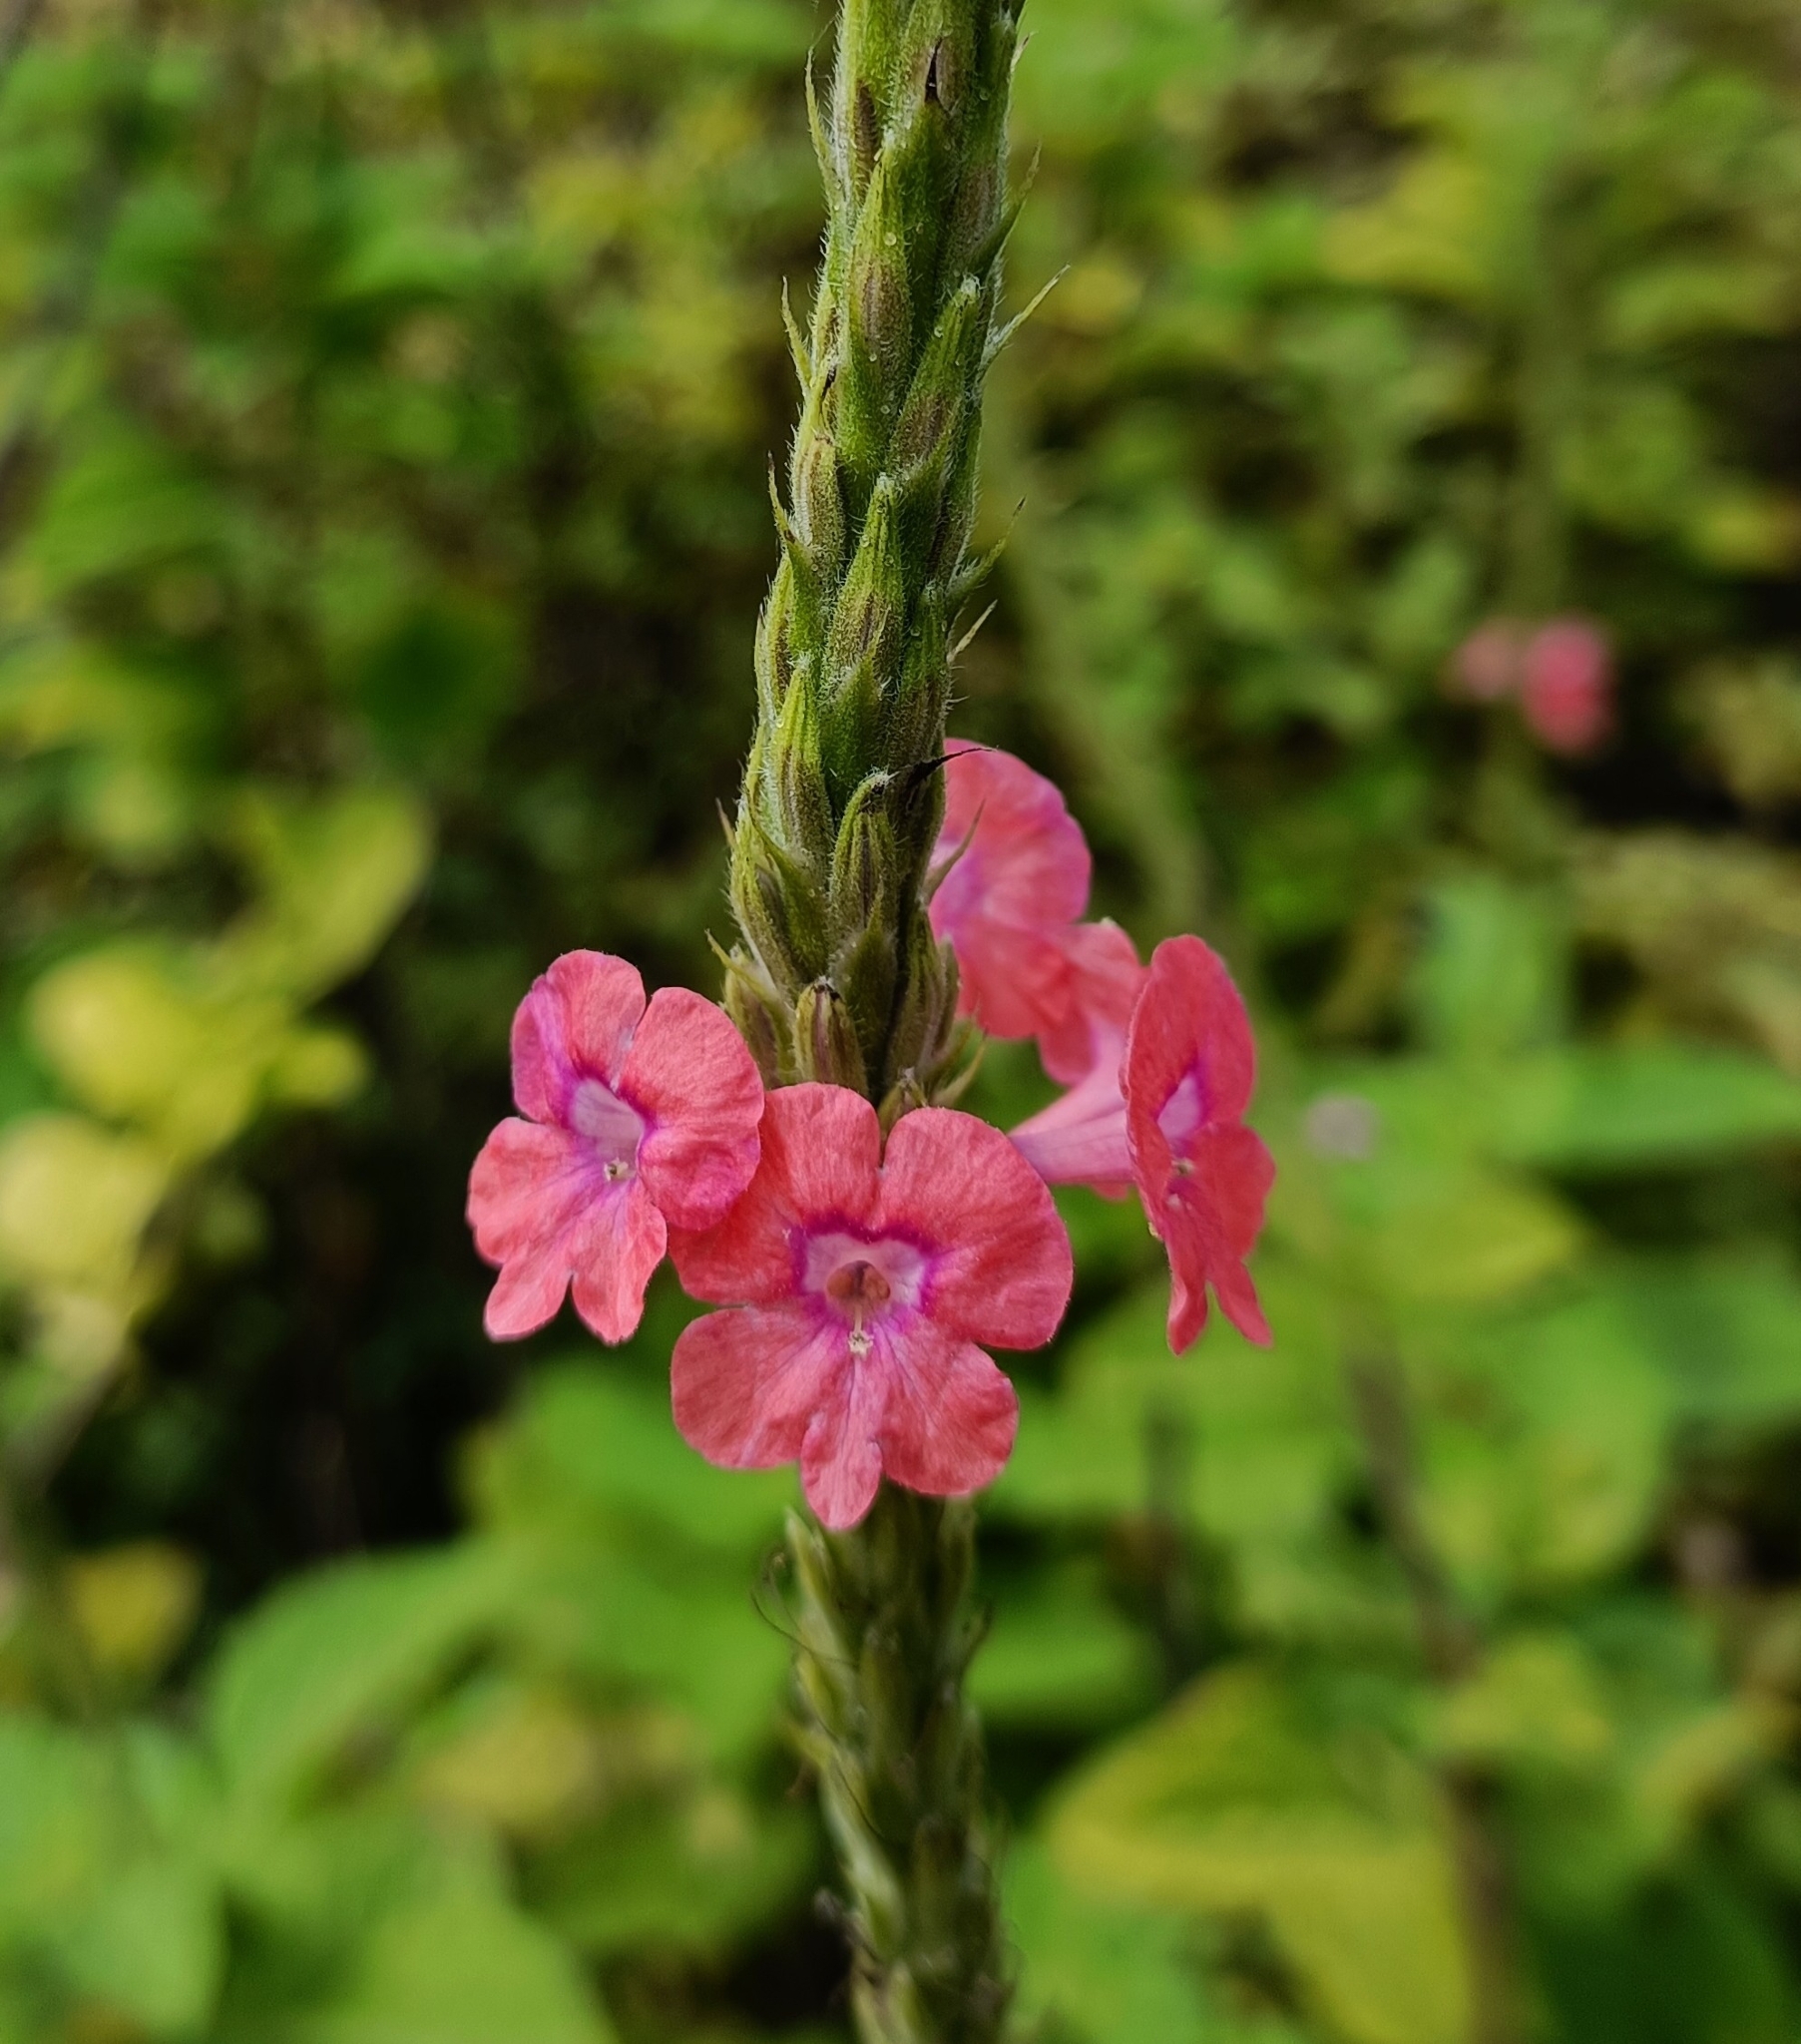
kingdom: Plantae
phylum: Tracheophyta
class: Magnoliopsida
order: Lamiales
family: Verbenaceae
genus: Stachytarpheta
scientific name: Stachytarpheta mutabilis
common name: Changeable velvetberry
